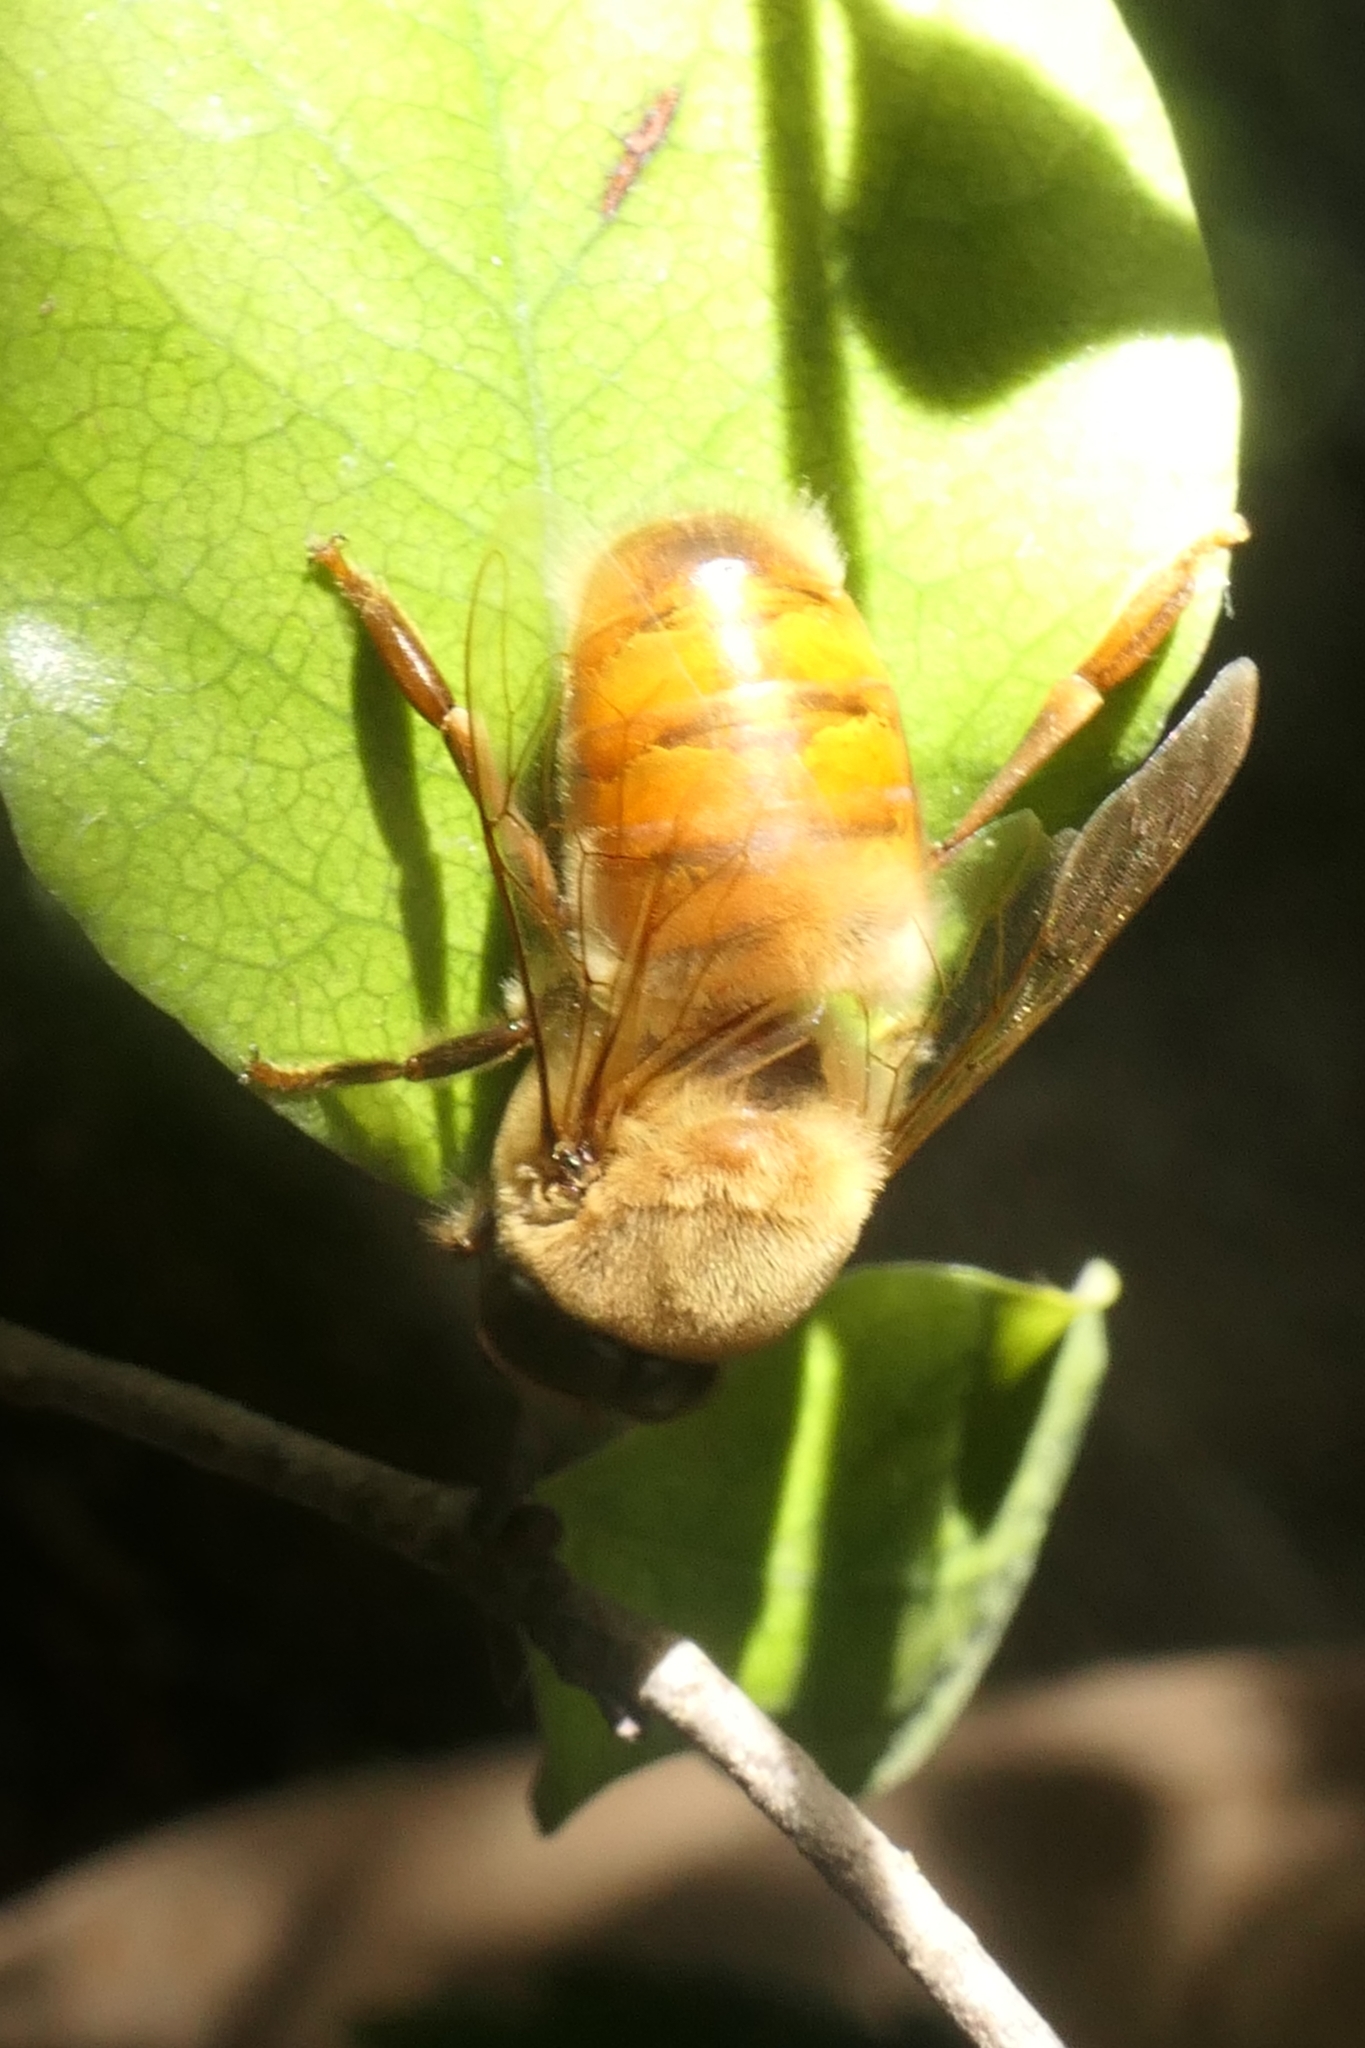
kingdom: Animalia
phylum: Arthropoda
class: Insecta
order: Hymenoptera
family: Apidae
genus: Apis
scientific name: Apis mellifera
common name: Honey bee
